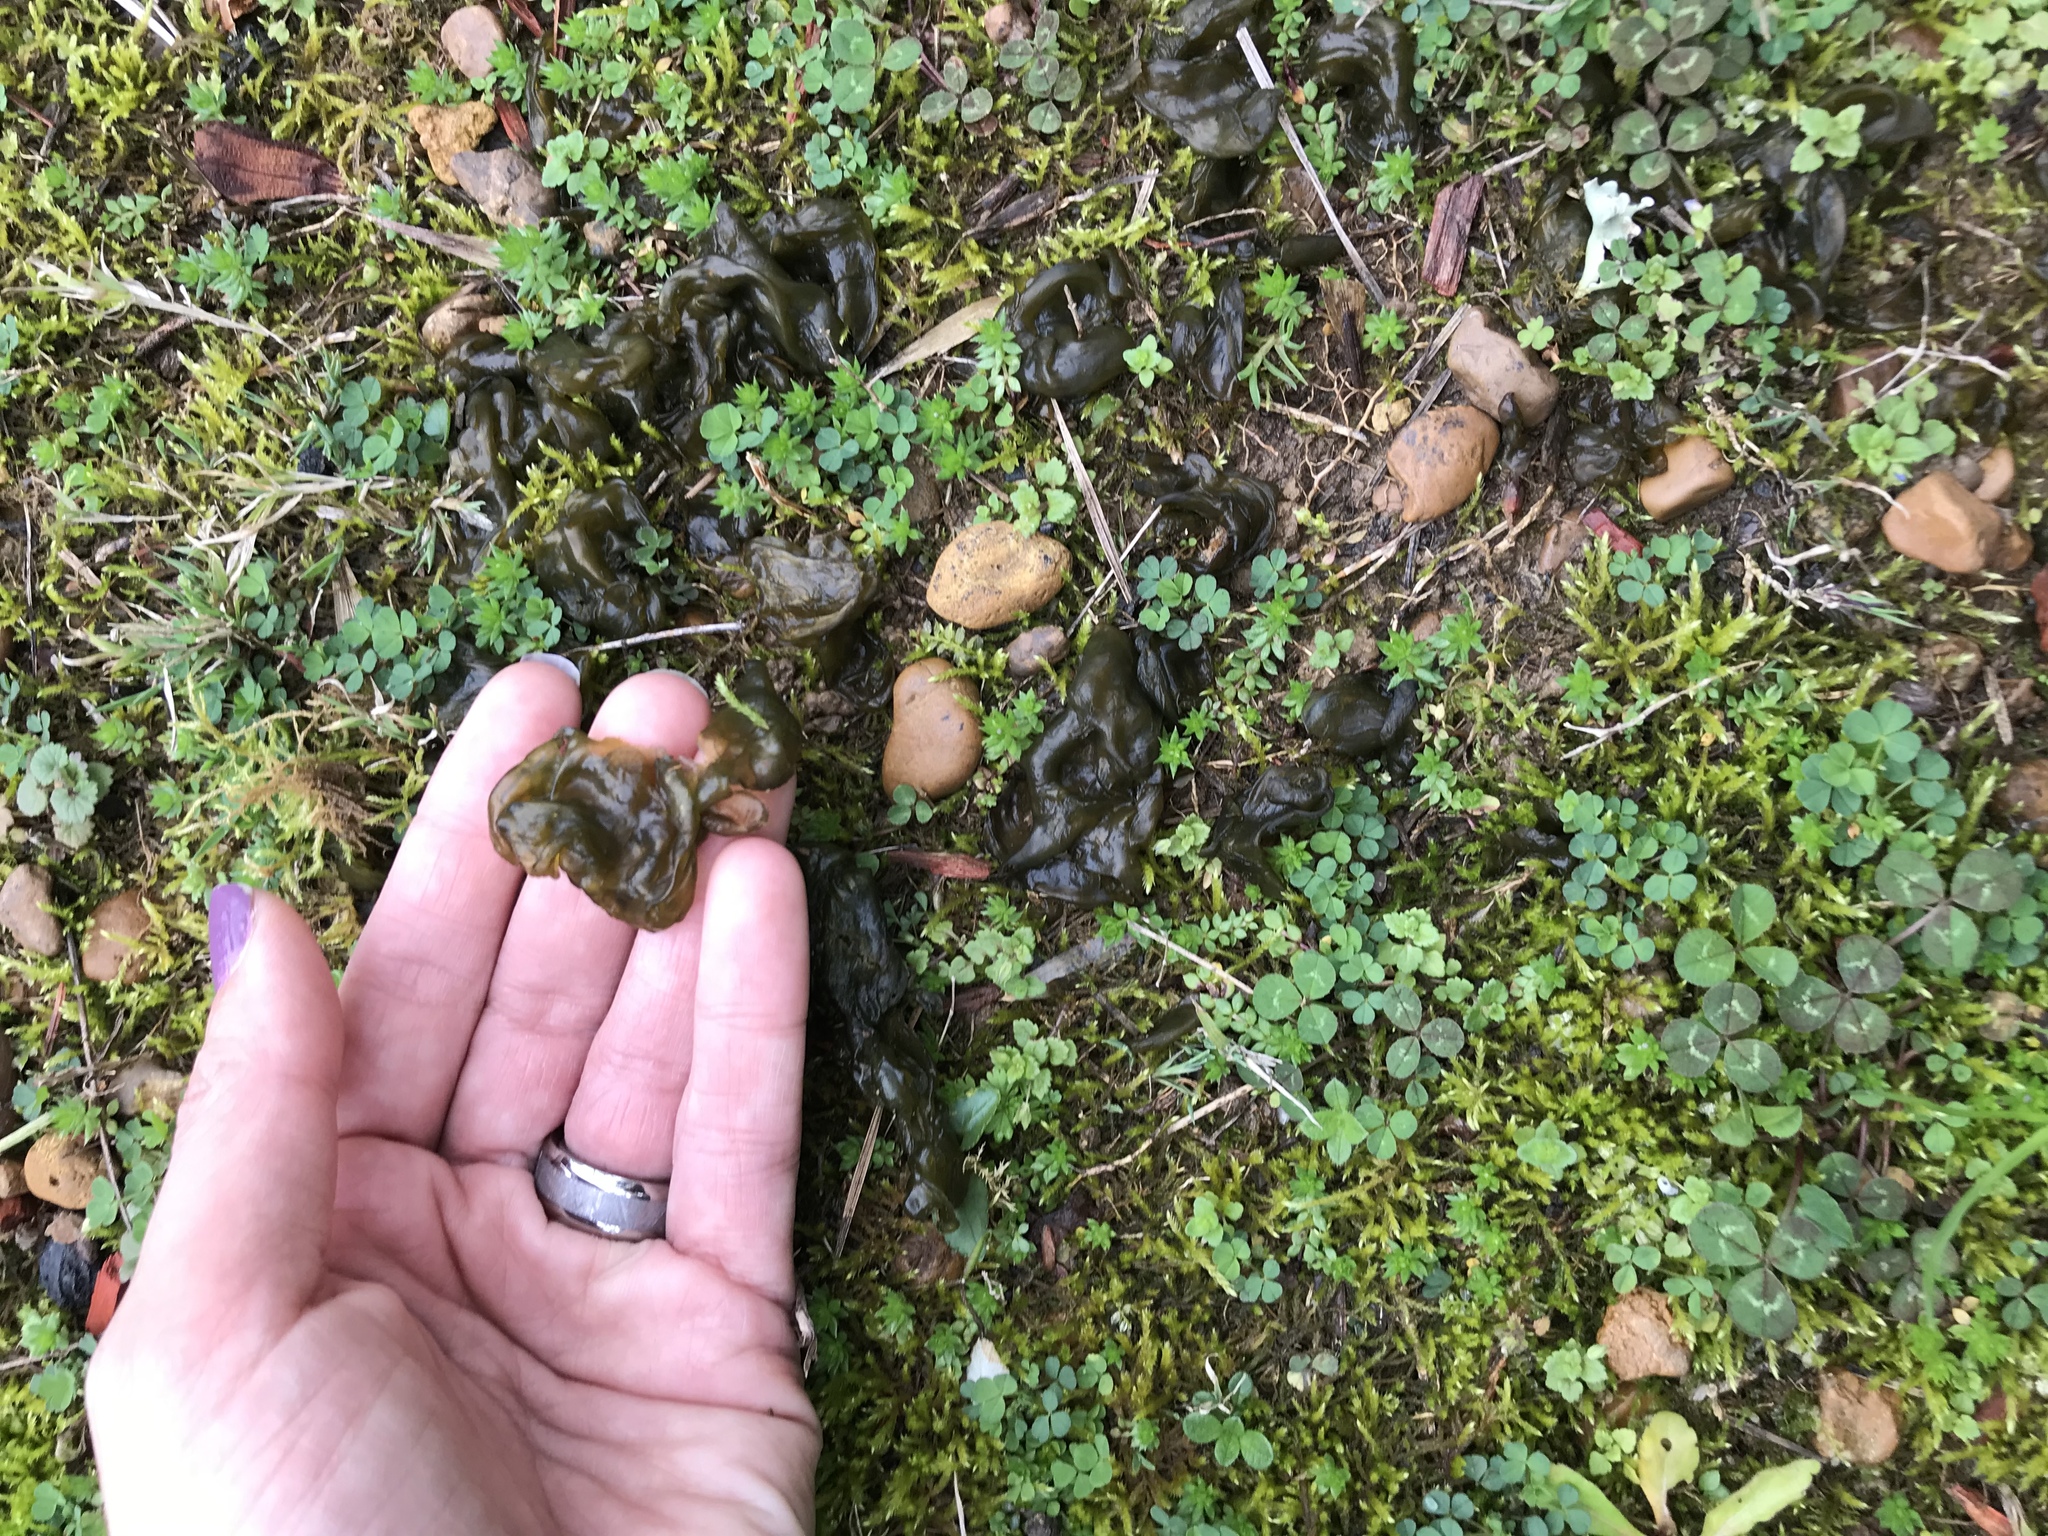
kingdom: Bacteria
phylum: Cyanobacteria
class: Cyanobacteriia
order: Cyanobacteriales
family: Nostocaceae
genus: Nostoc
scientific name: Nostoc commune
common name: Star jelly
